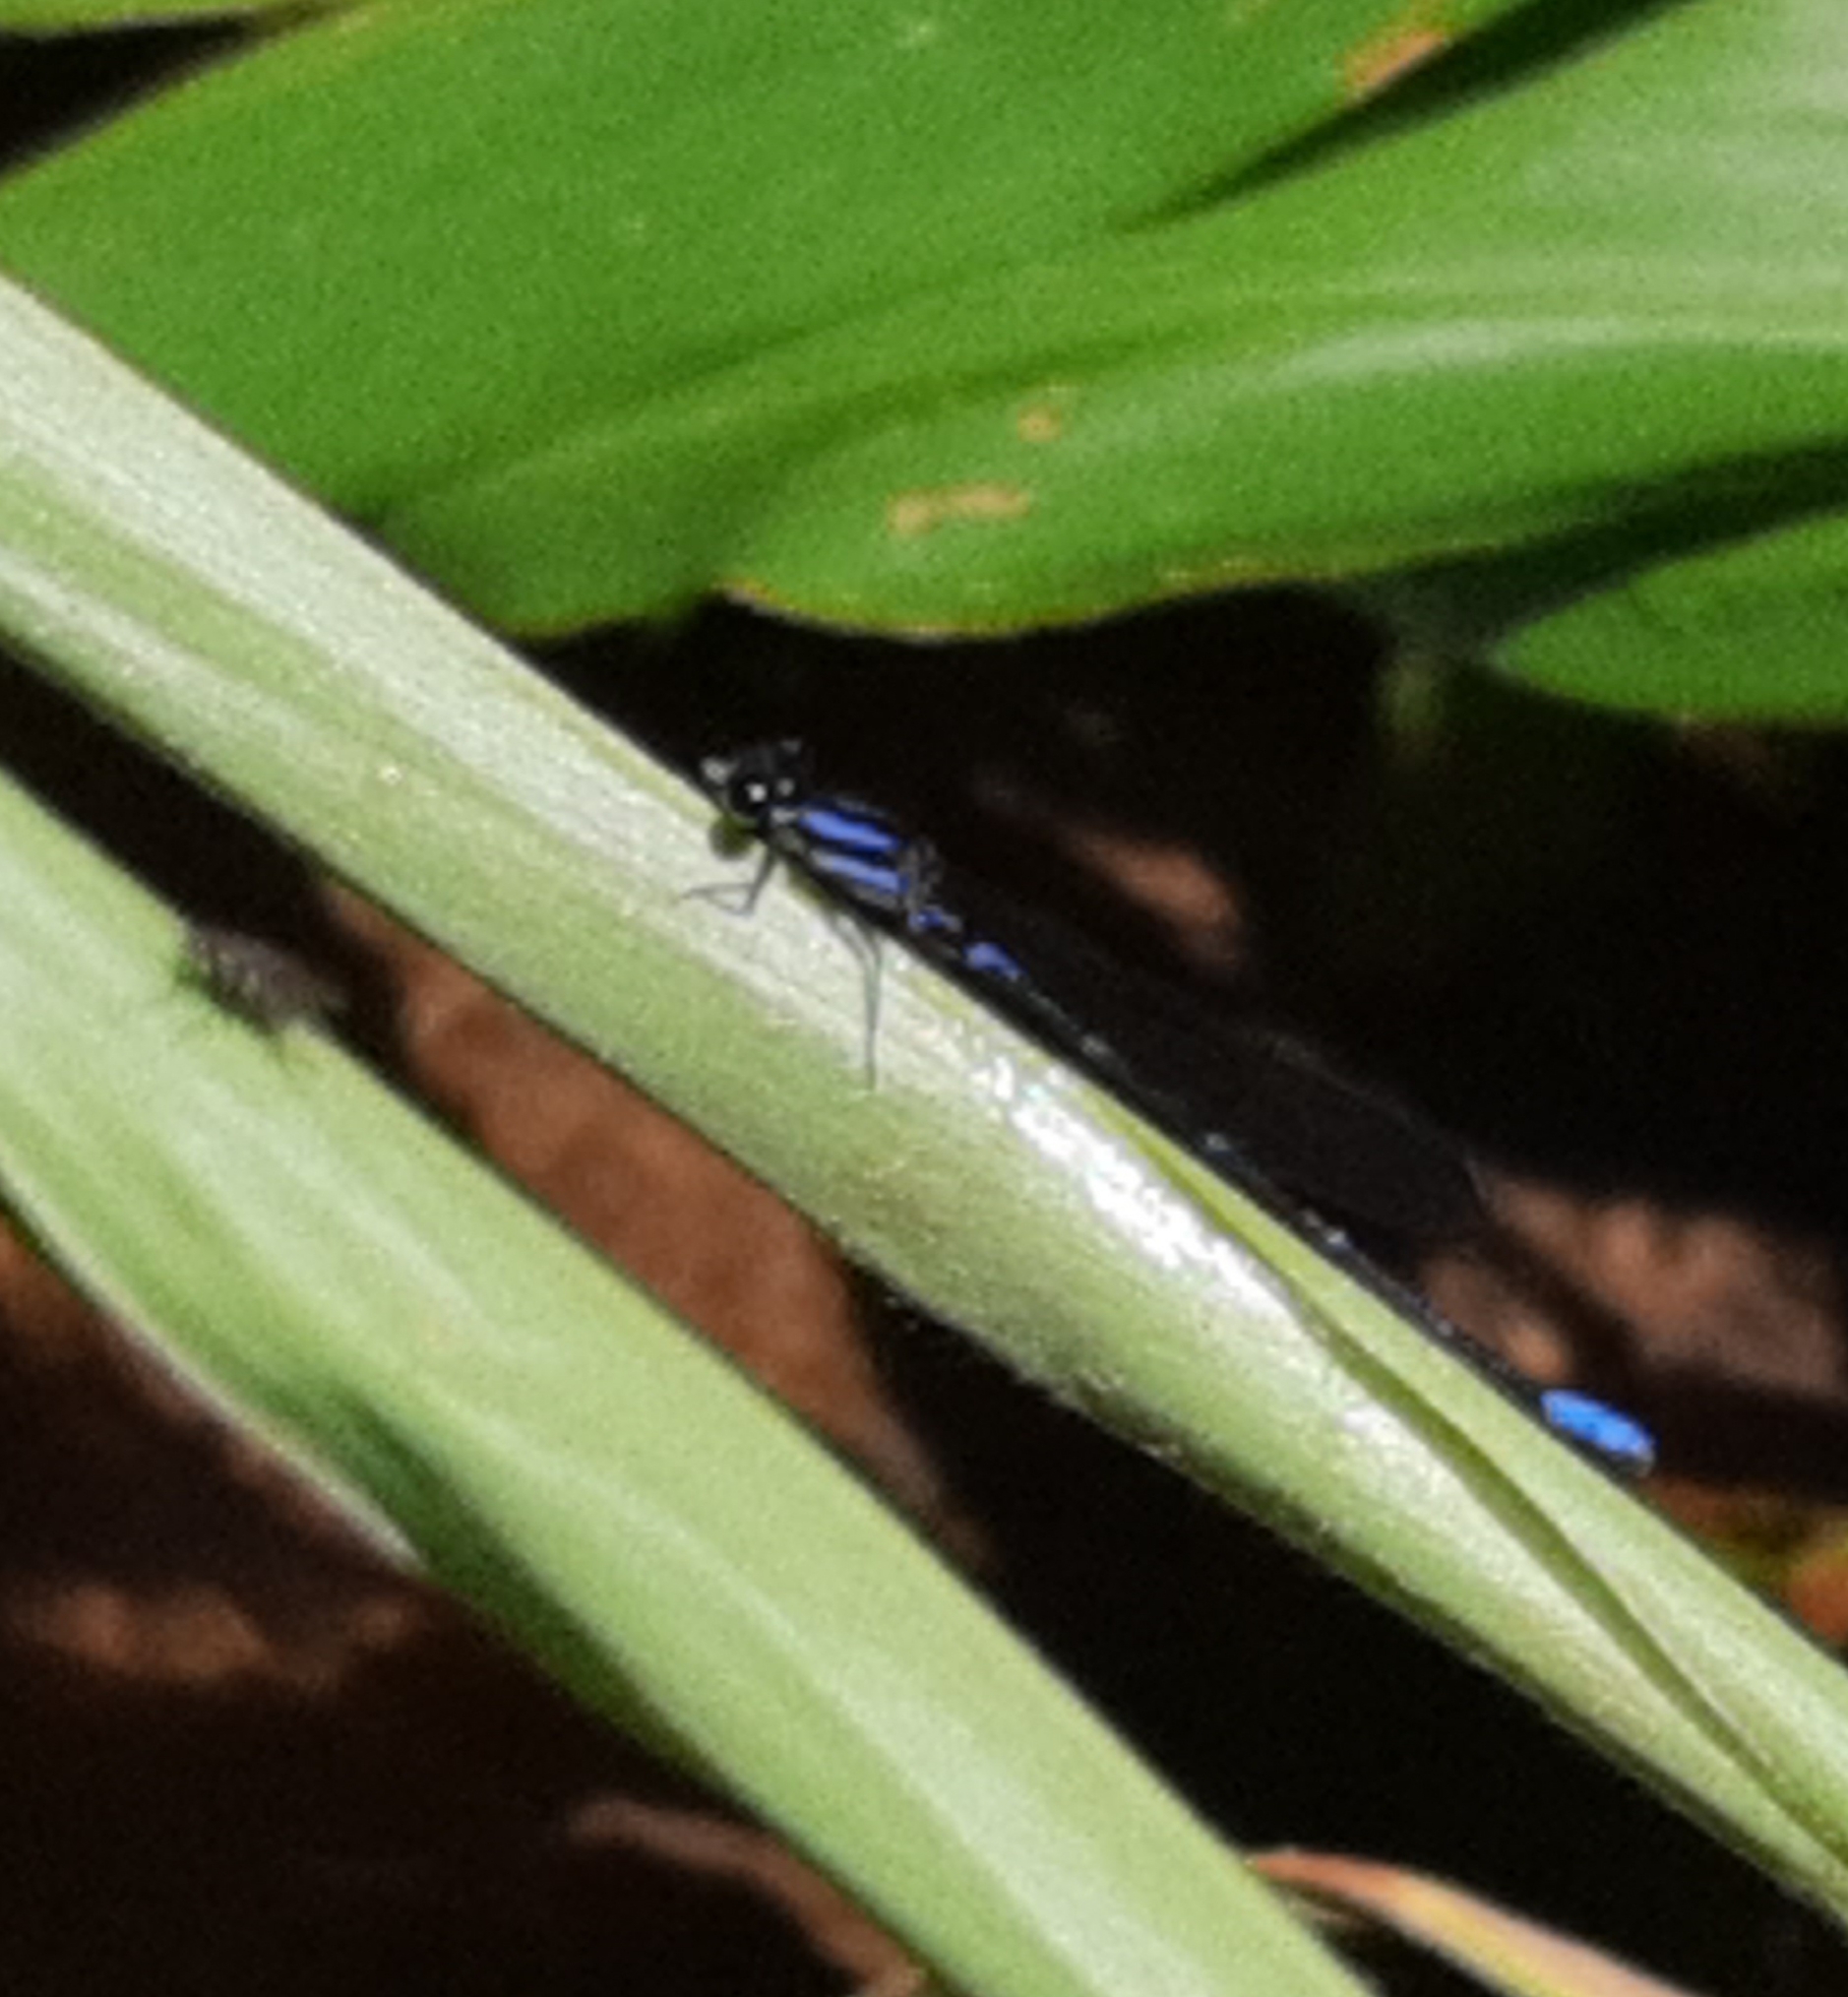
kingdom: Animalia
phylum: Arthropoda
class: Insecta
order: Odonata
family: Coenagrionidae
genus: Argia
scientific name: Argia oculata
